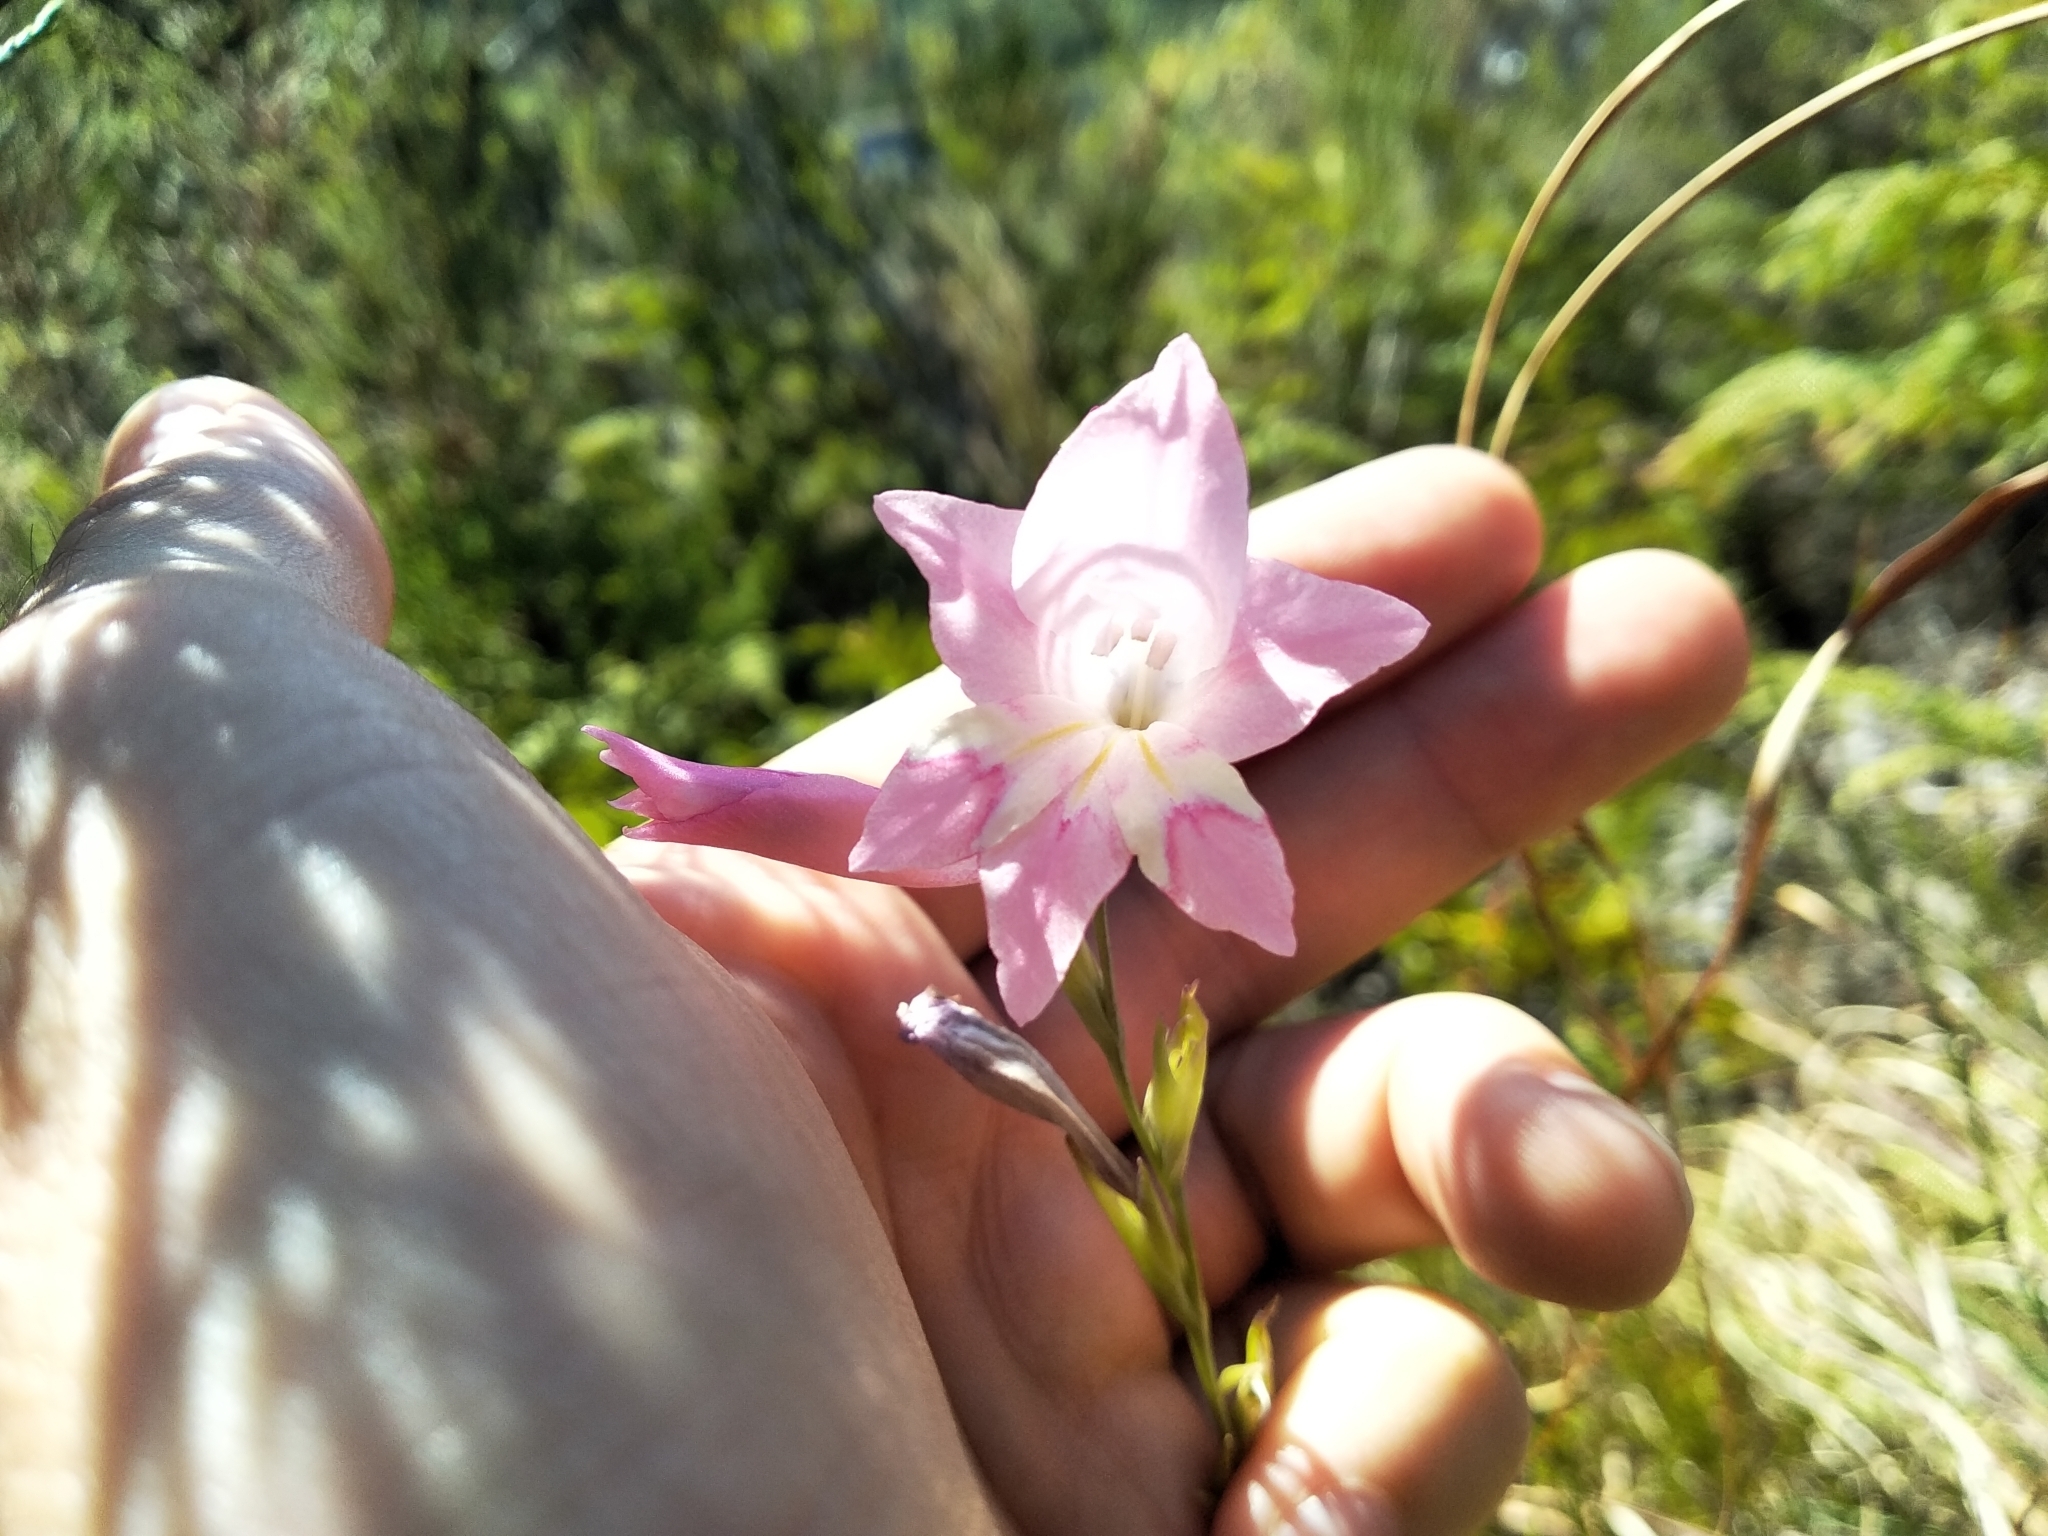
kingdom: Plantae
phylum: Tracheophyta
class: Liliopsida
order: Asparagales
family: Iridaceae
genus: Gladiolus
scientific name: Gladiolus brevifolius
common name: March pypie
